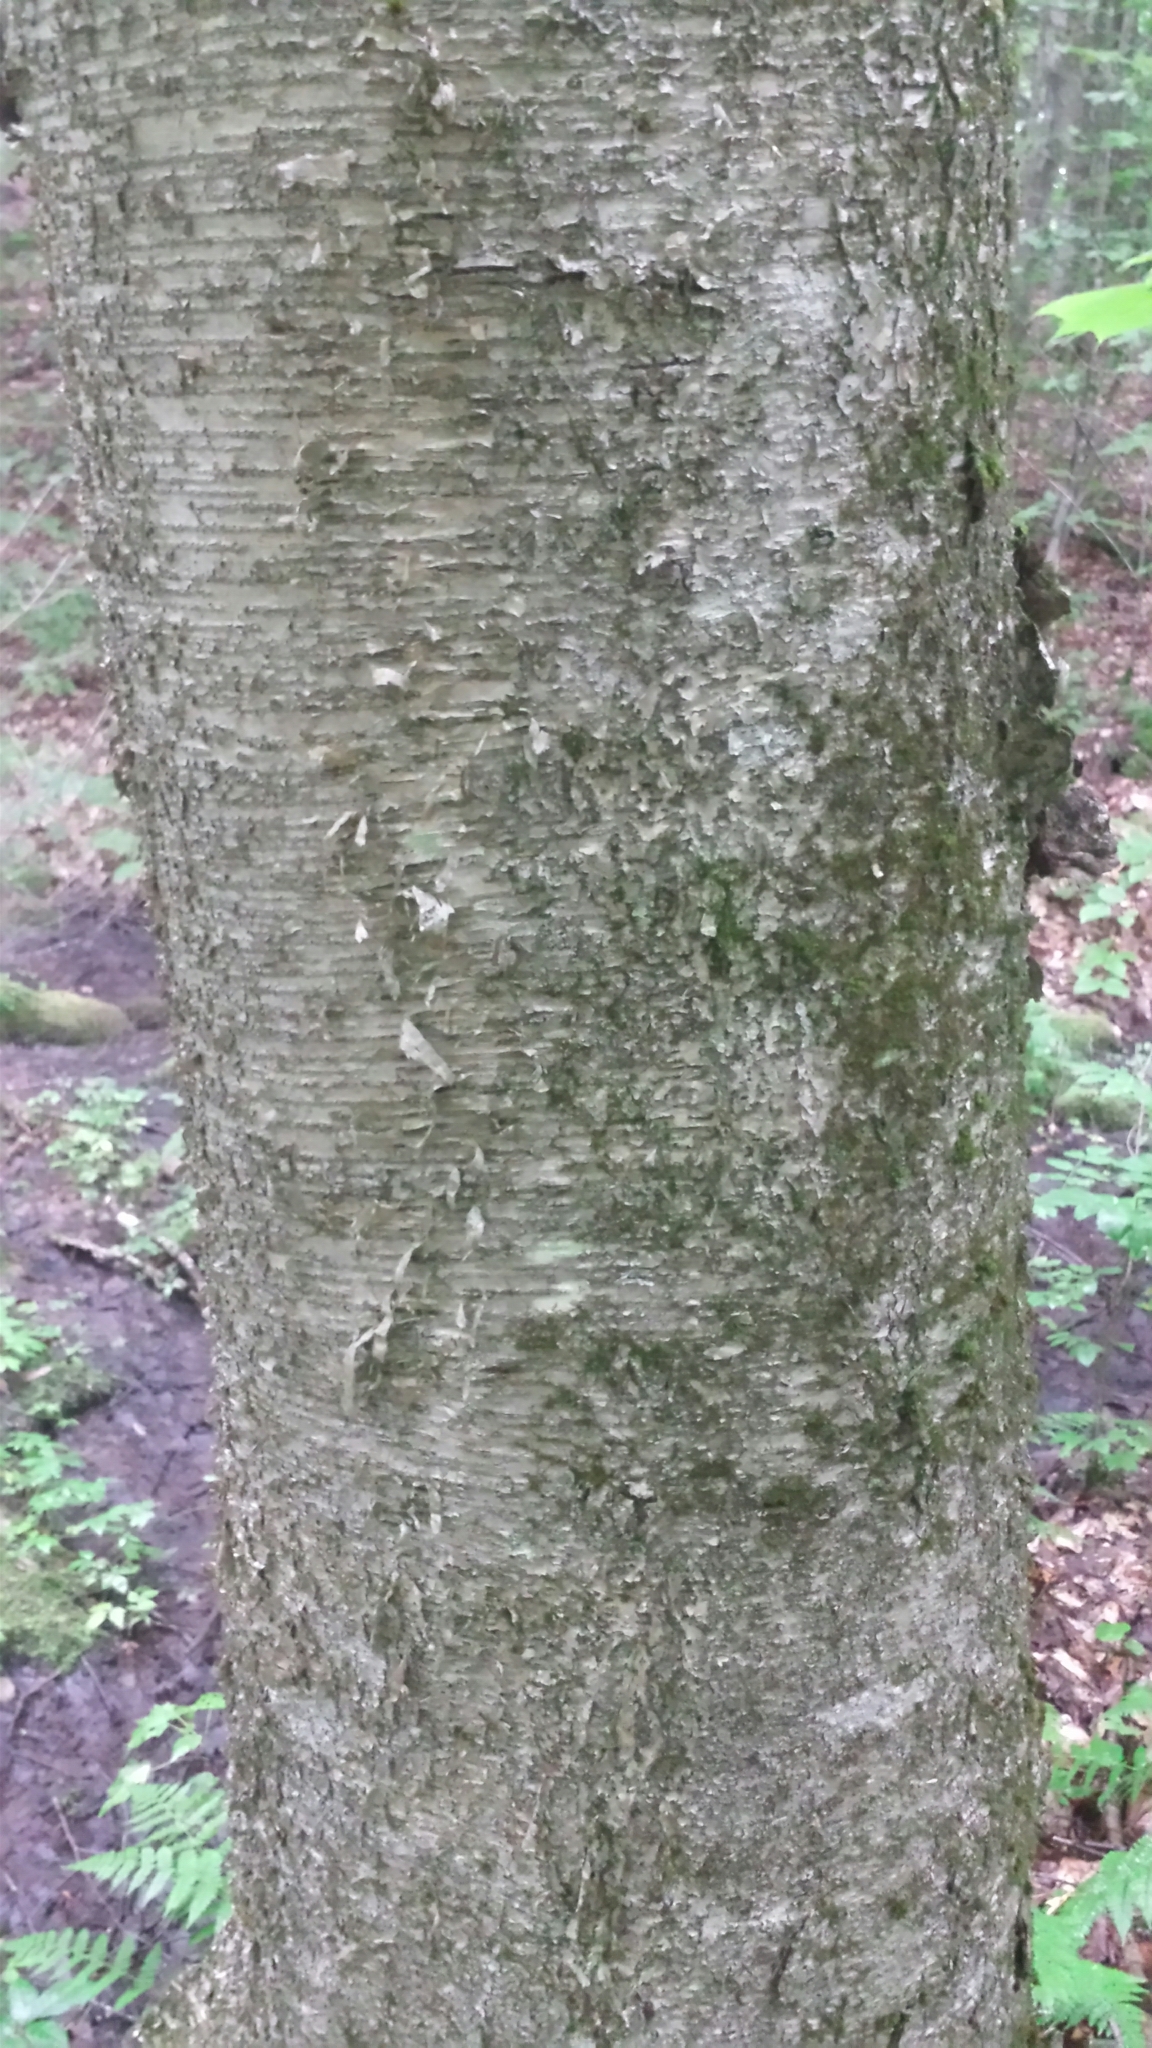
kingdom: Plantae
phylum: Tracheophyta
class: Magnoliopsida
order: Fagales
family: Betulaceae
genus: Betula
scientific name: Betula alleghaniensis
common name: Yellow birch
